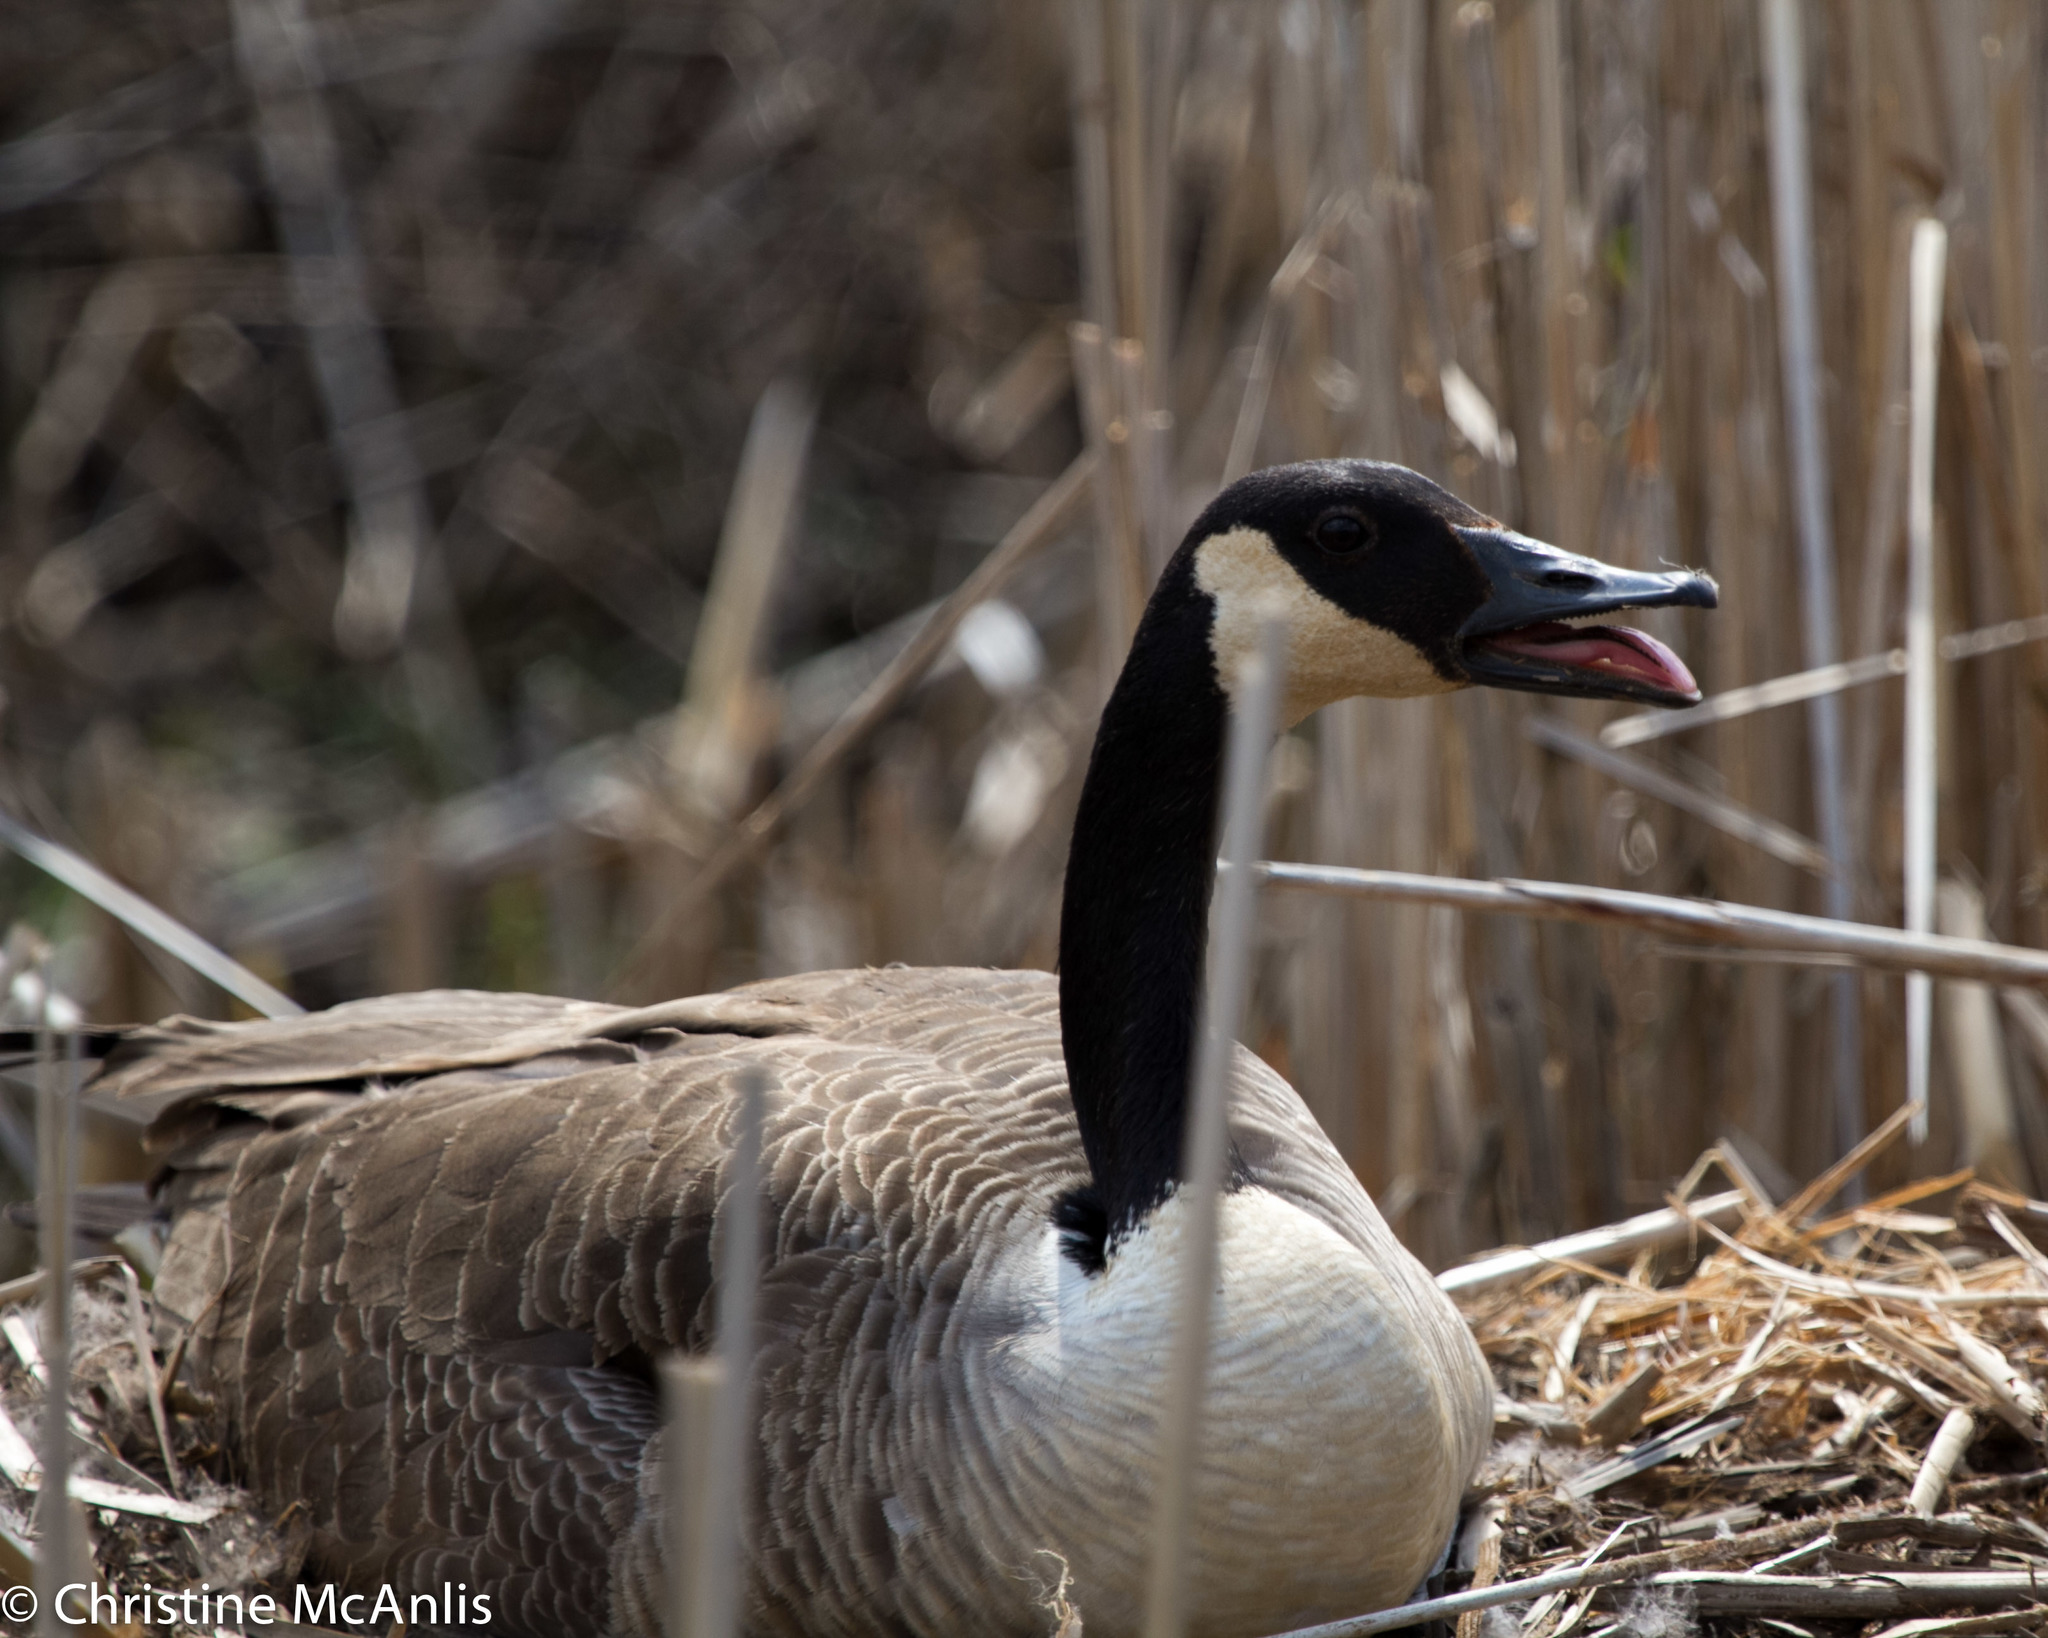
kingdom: Animalia
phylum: Chordata
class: Aves
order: Anseriformes
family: Anatidae
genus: Branta
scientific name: Branta canadensis
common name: Canada goose
